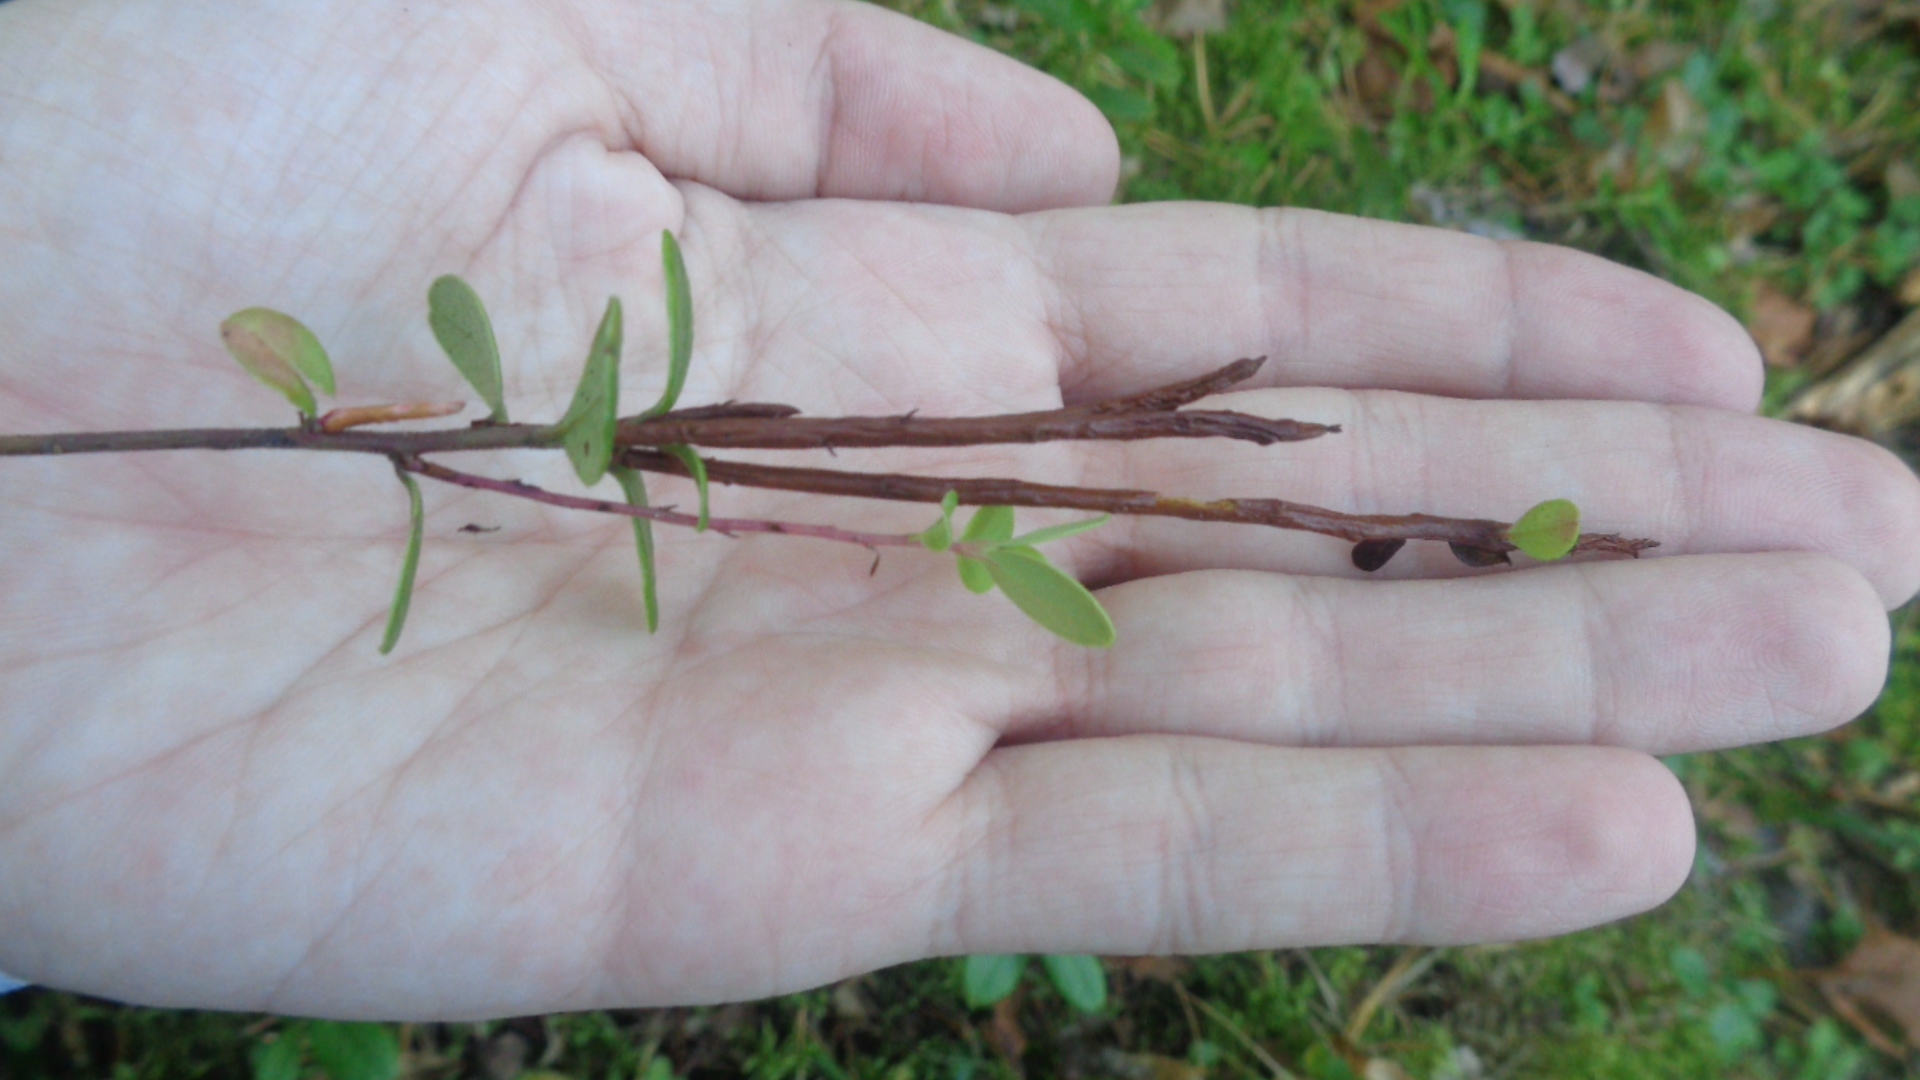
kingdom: Fungi
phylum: Basidiomycota
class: Pucciniomycetes
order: Pucciniales
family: Pucciniastraceae
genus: Calyptospora
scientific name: Calyptospora columnaris
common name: Huckleberry broom rust fungus
